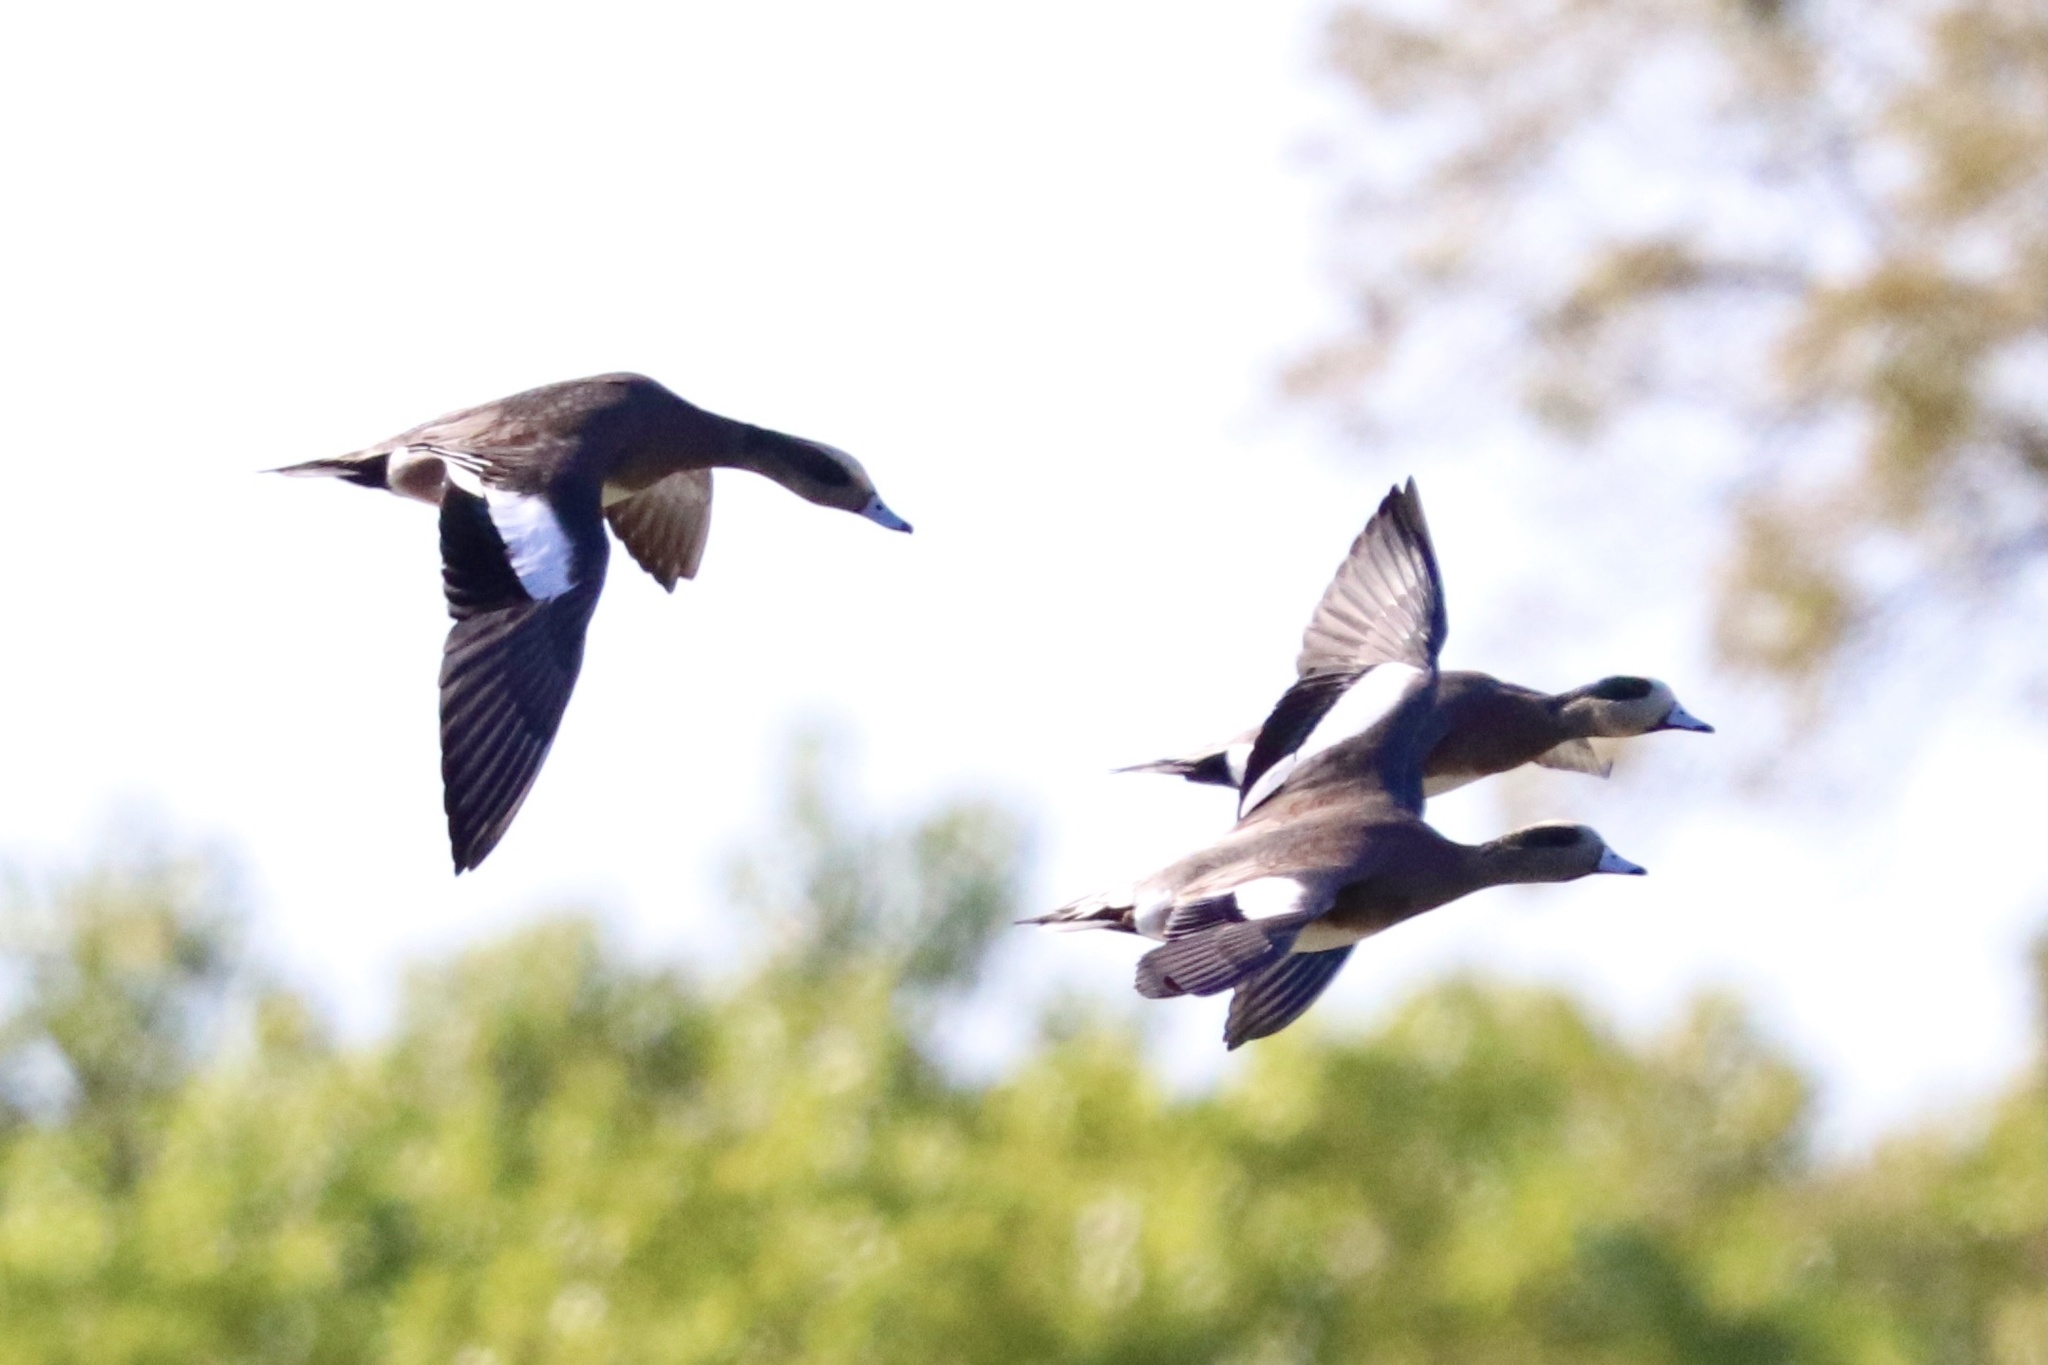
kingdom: Animalia
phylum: Chordata
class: Aves
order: Anseriformes
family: Anatidae
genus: Mareca
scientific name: Mareca americana
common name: American wigeon
